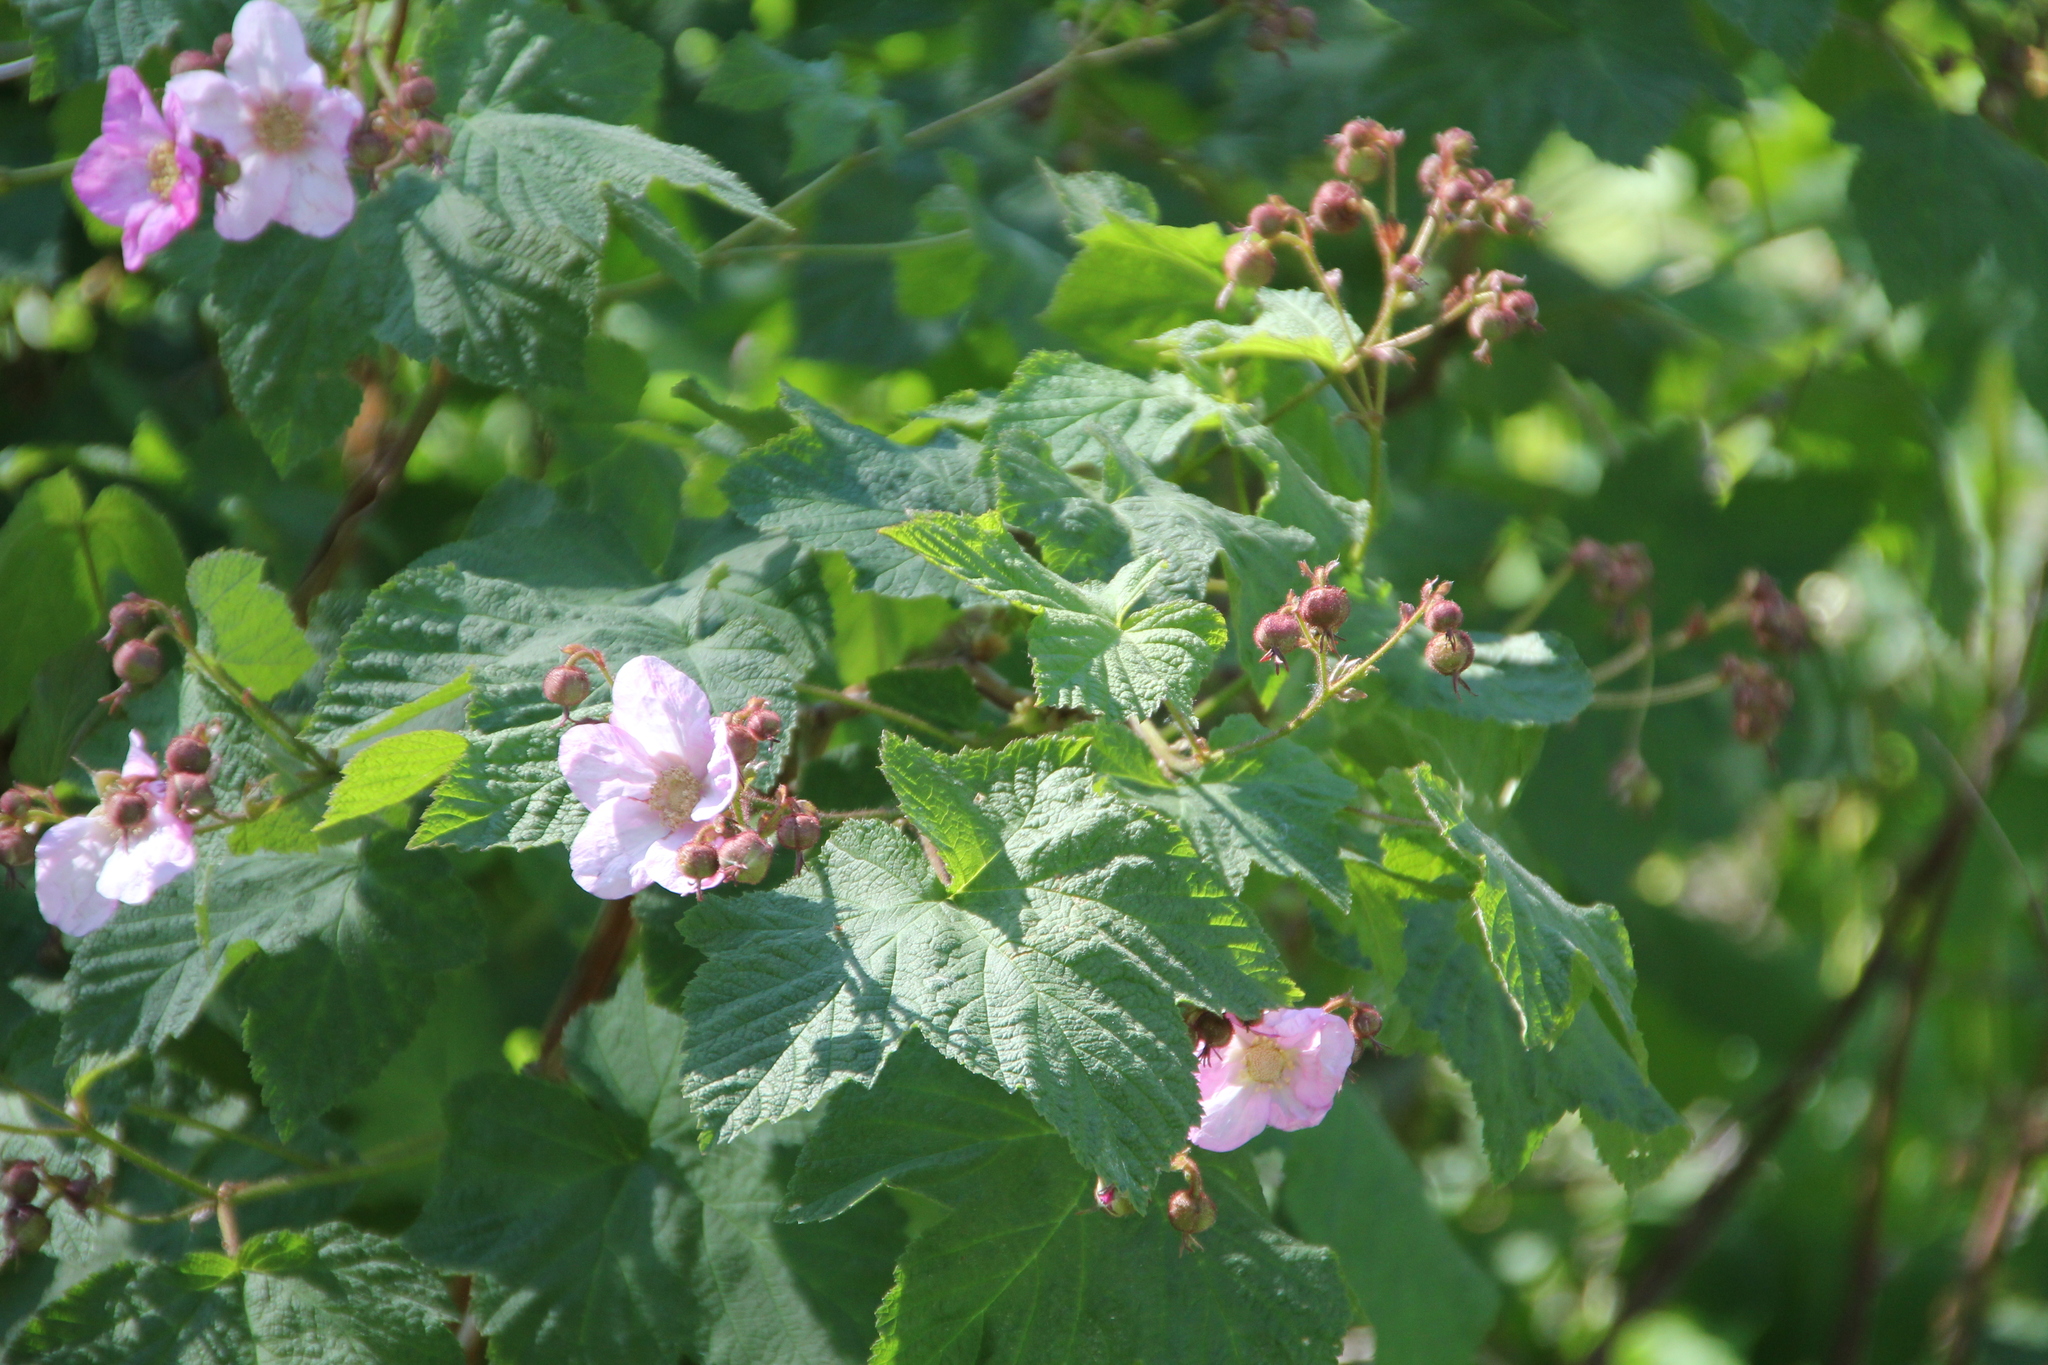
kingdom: Plantae
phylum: Tracheophyta
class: Magnoliopsida
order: Rosales
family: Rosaceae
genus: Rubus
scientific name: Rubus odoratus
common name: Purple-flowered raspberry
